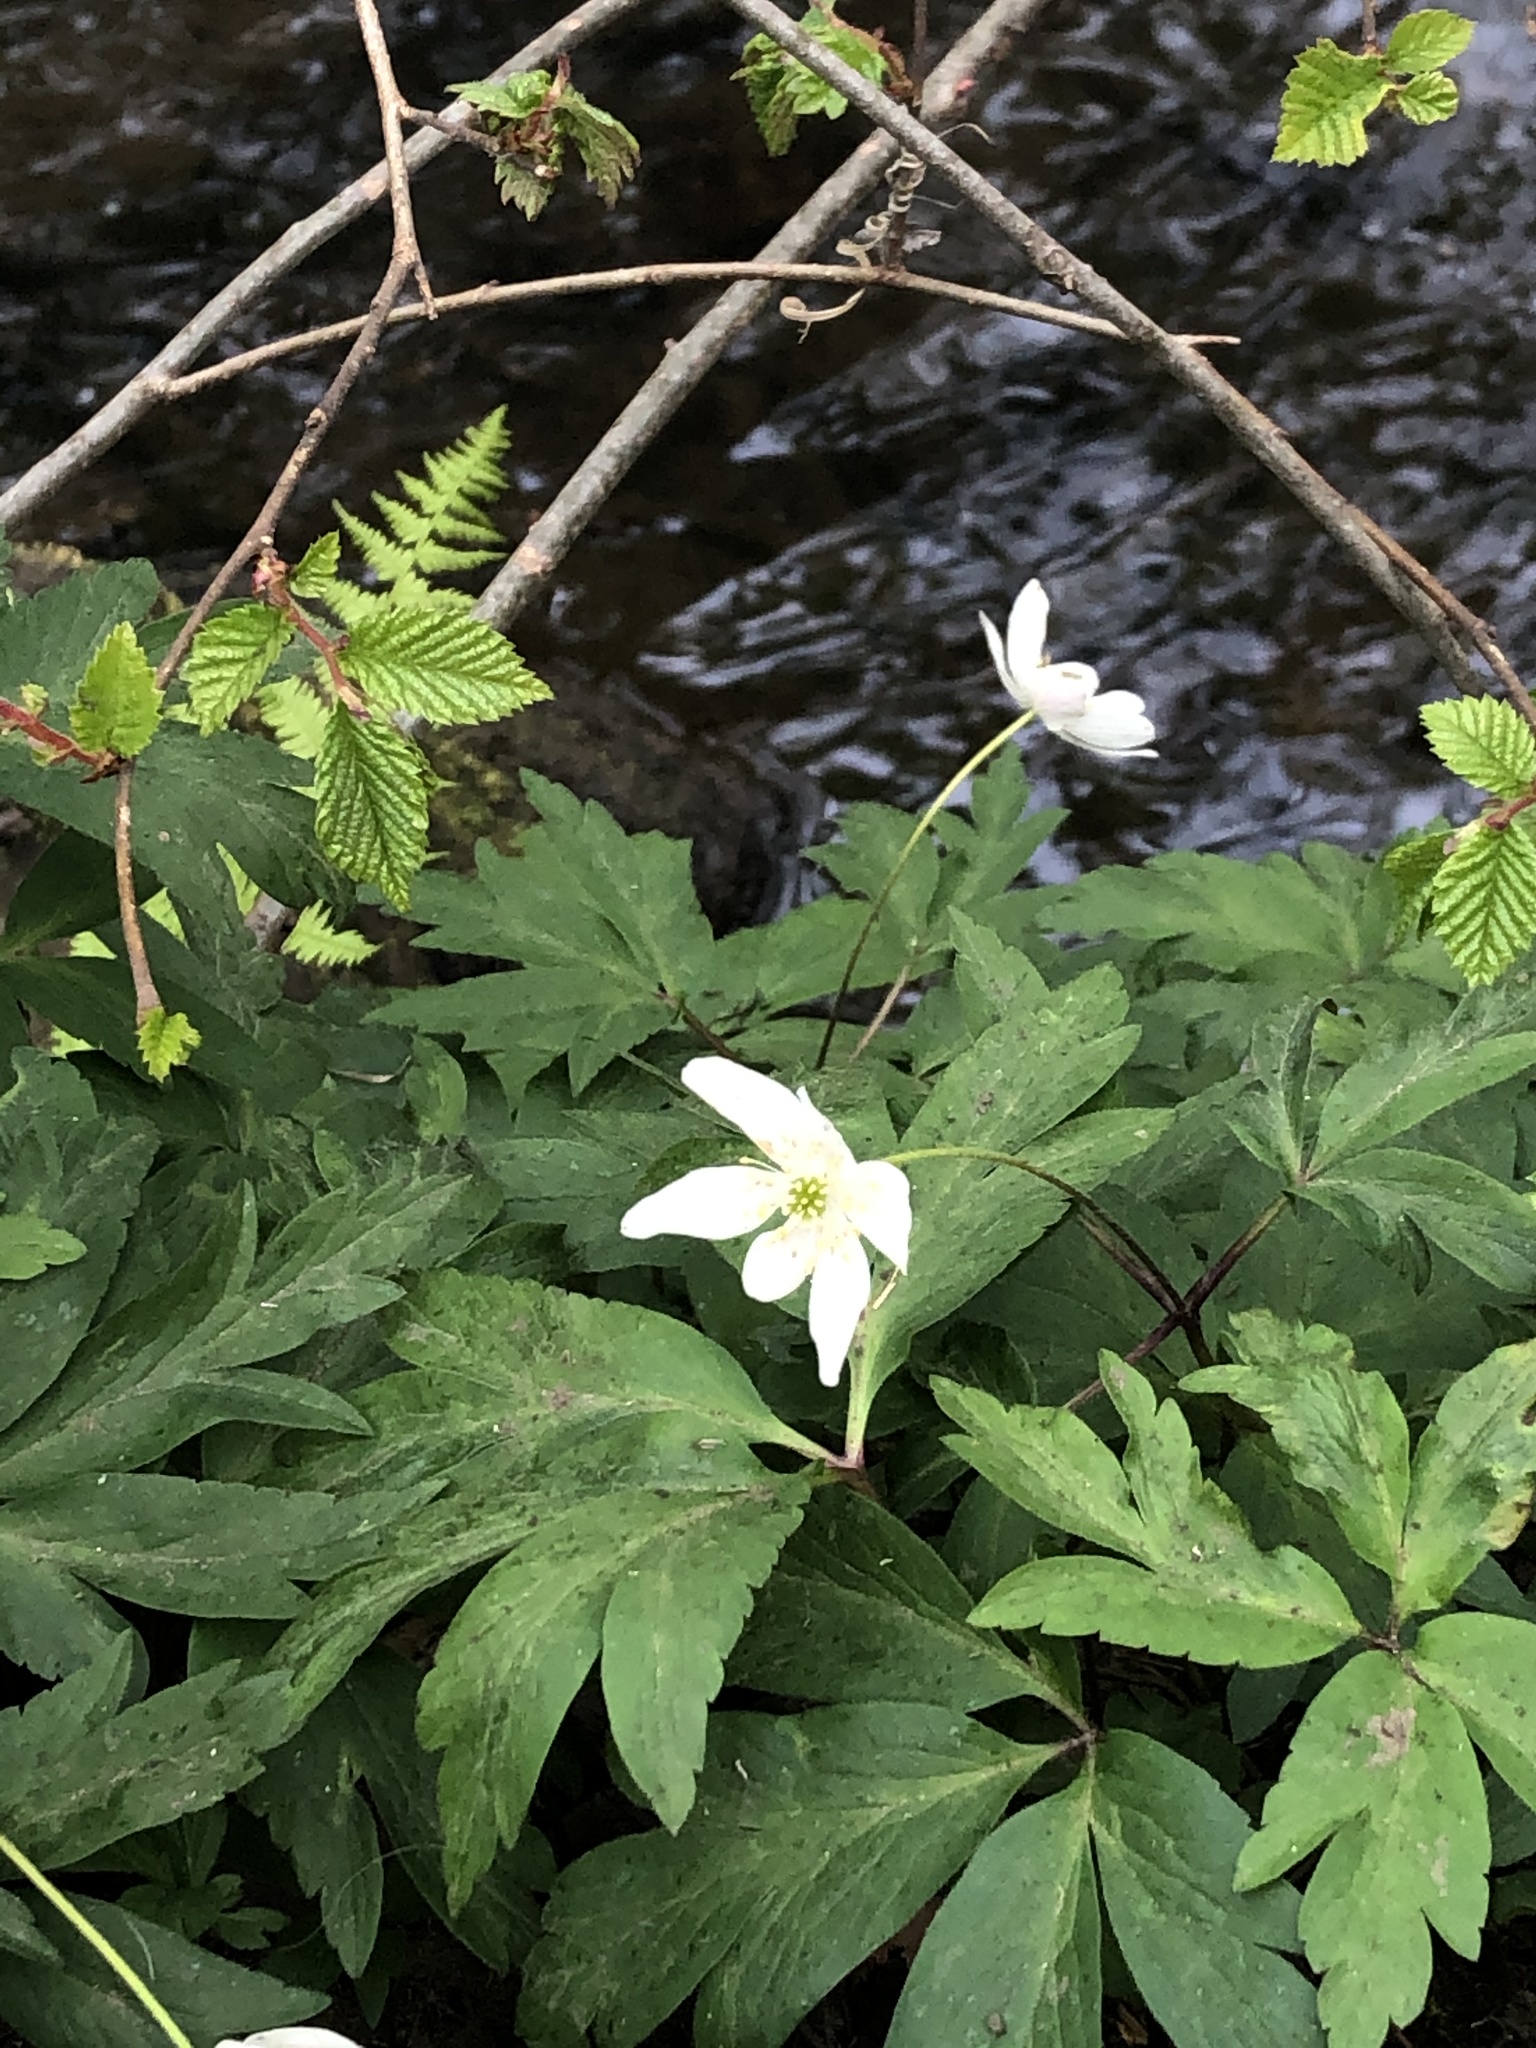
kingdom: Plantae
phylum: Tracheophyta
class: Magnoliopsida
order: Ranunculales
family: Ranunculaceae
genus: Anemone
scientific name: Anemone nemorosa
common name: Wood anemone
